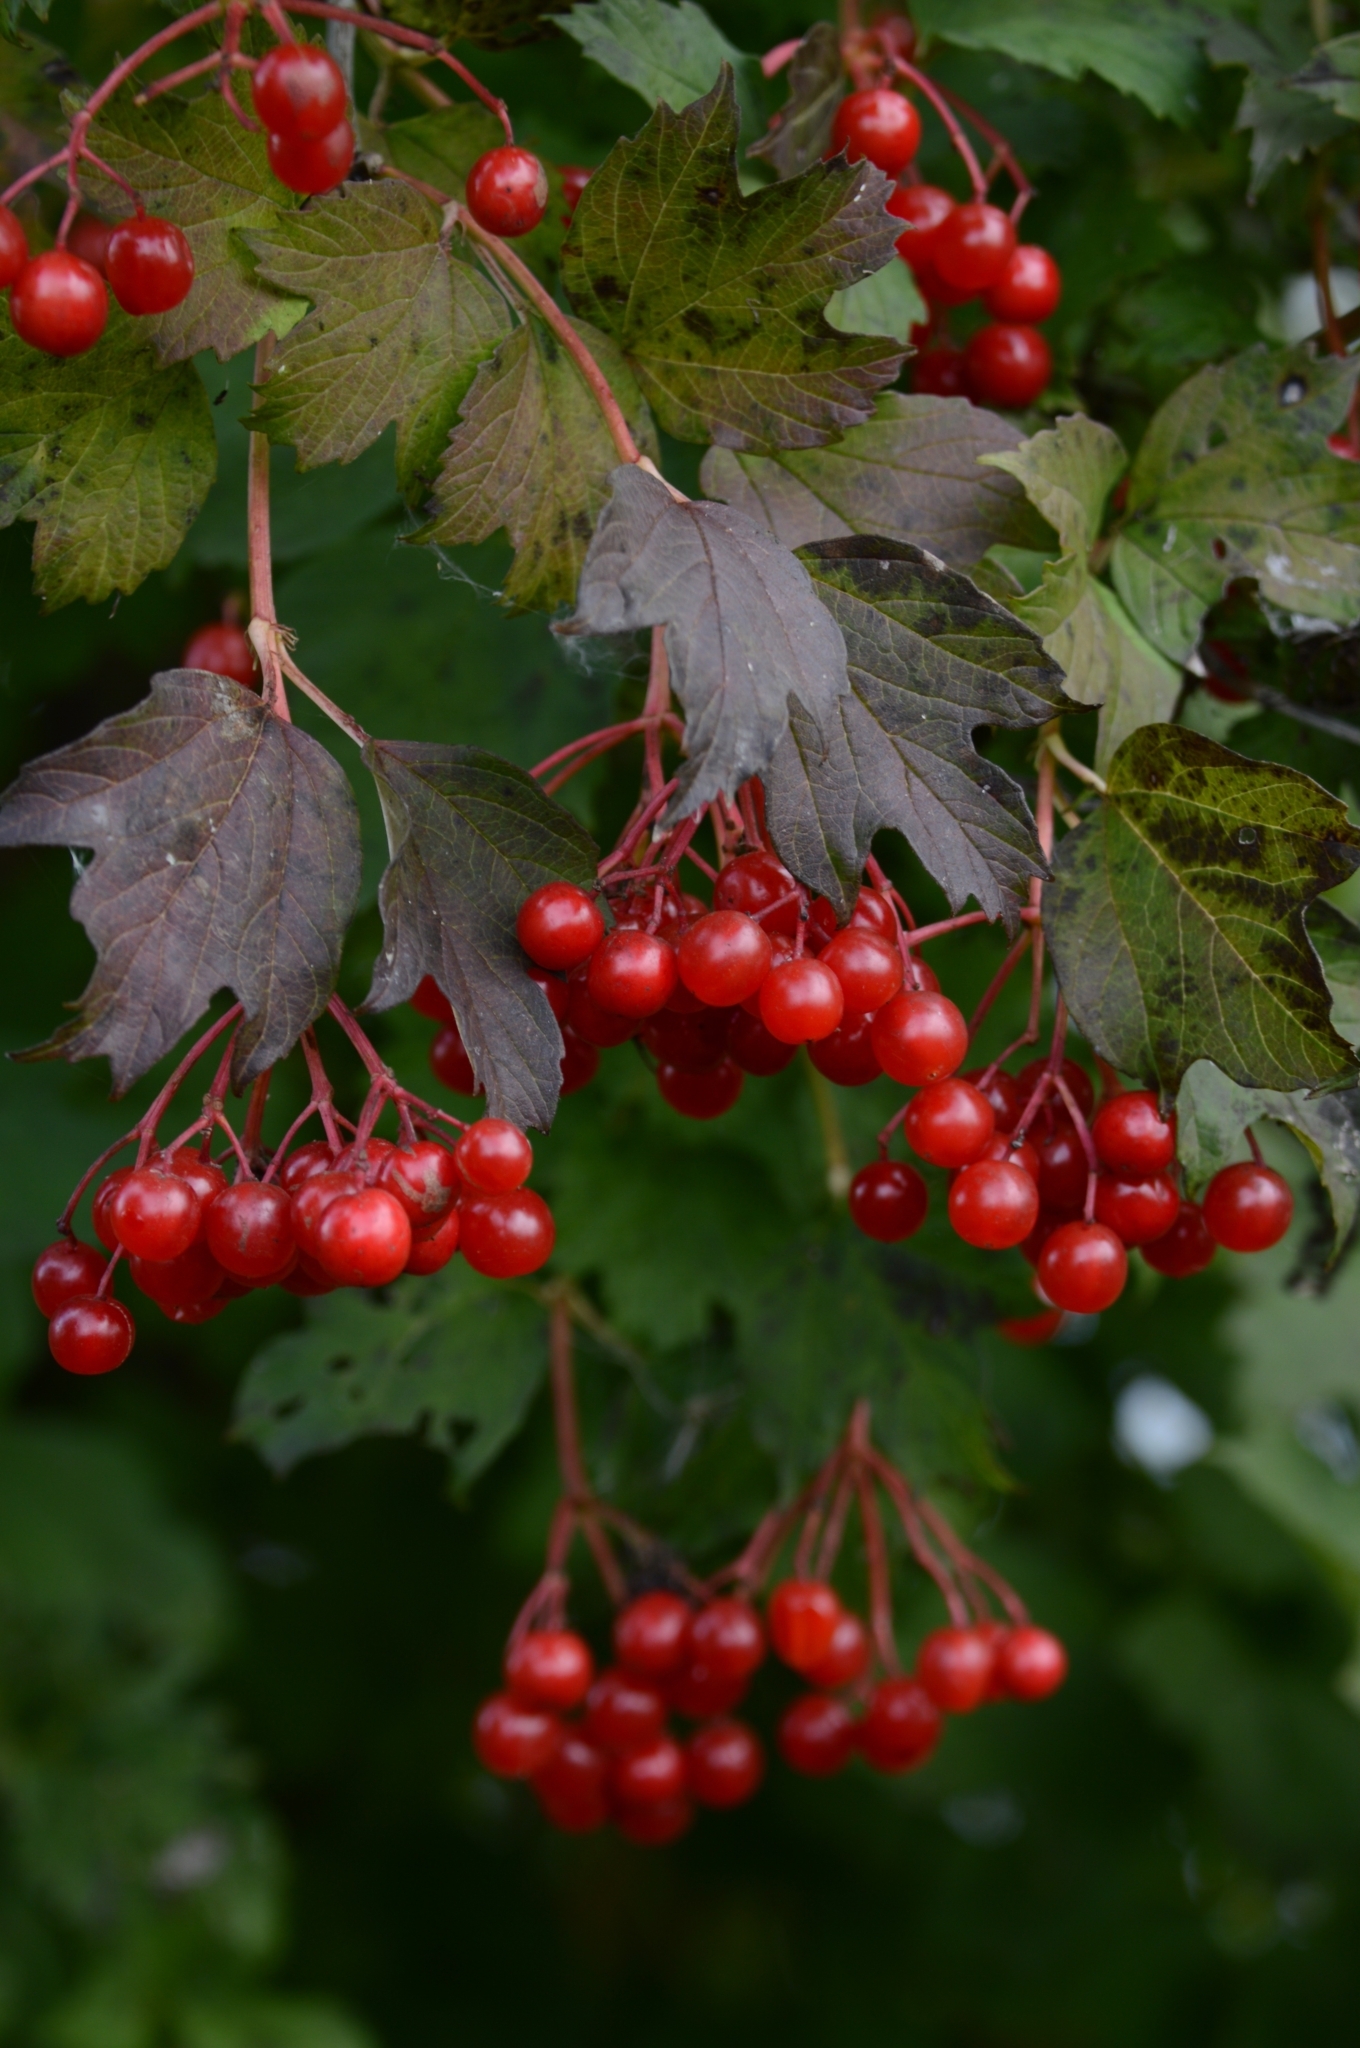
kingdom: Plantae
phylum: Tracheophyta
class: Magnoliopsida
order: Dipsacales
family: Viburnaceae
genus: Viburnum
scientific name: Viburnum opulus
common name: Guelder-rose
